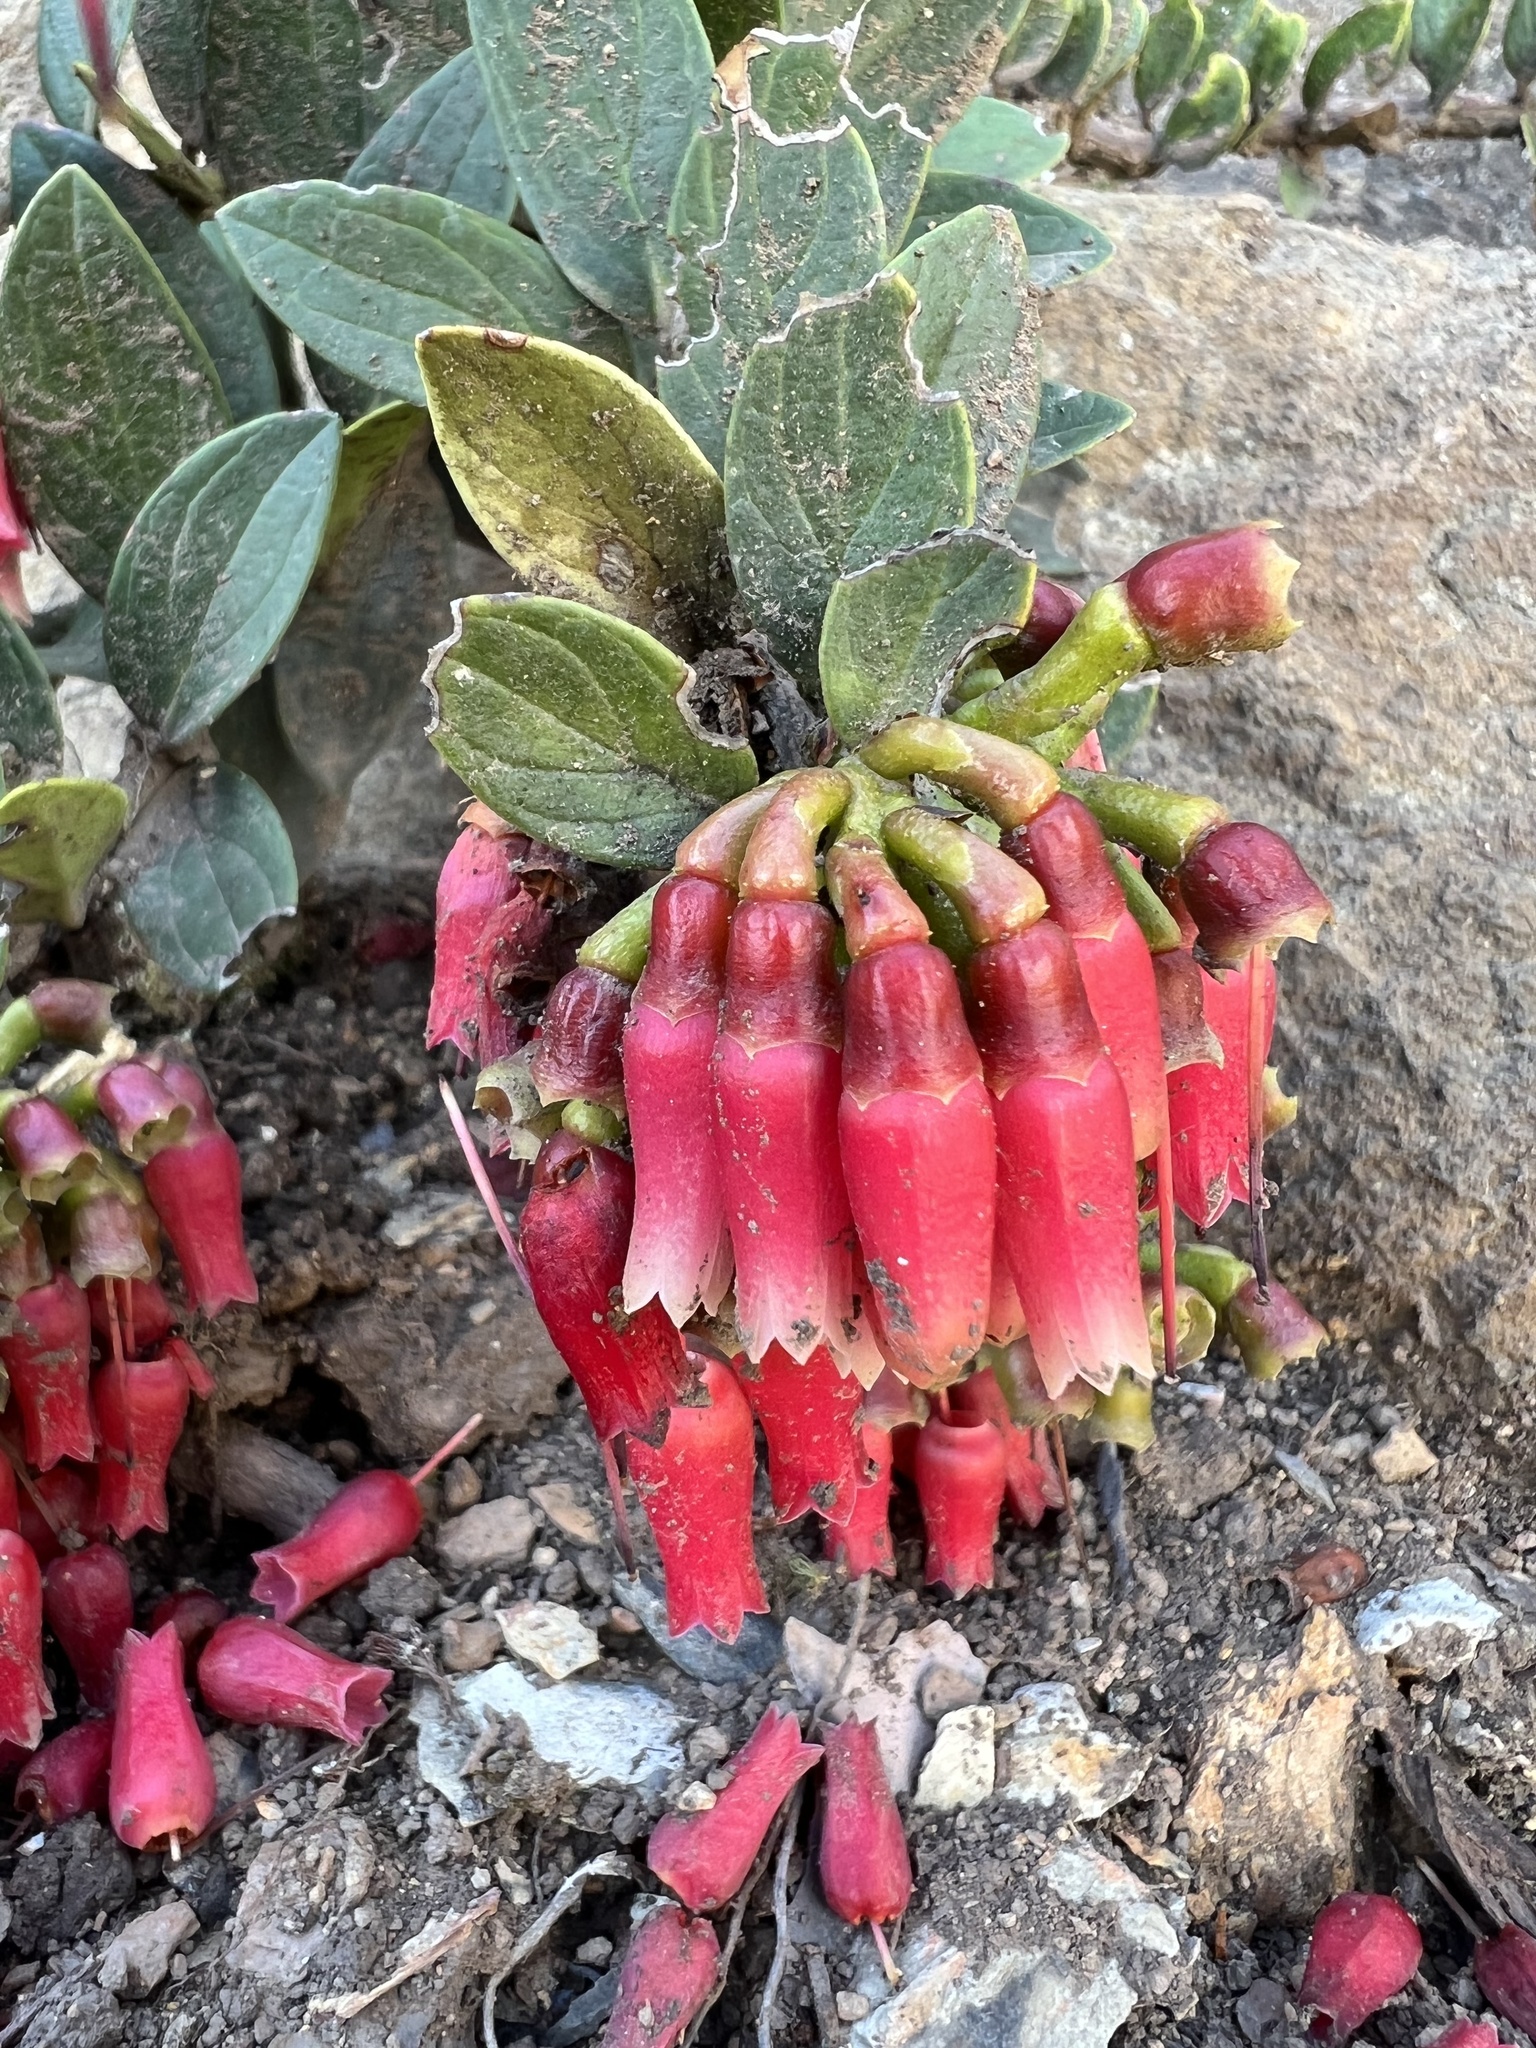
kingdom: Plantae
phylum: Tracheophyta
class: Magnoliopsida
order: Ericales
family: Ericaceae
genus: Macleania
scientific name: Macleania rupestris
